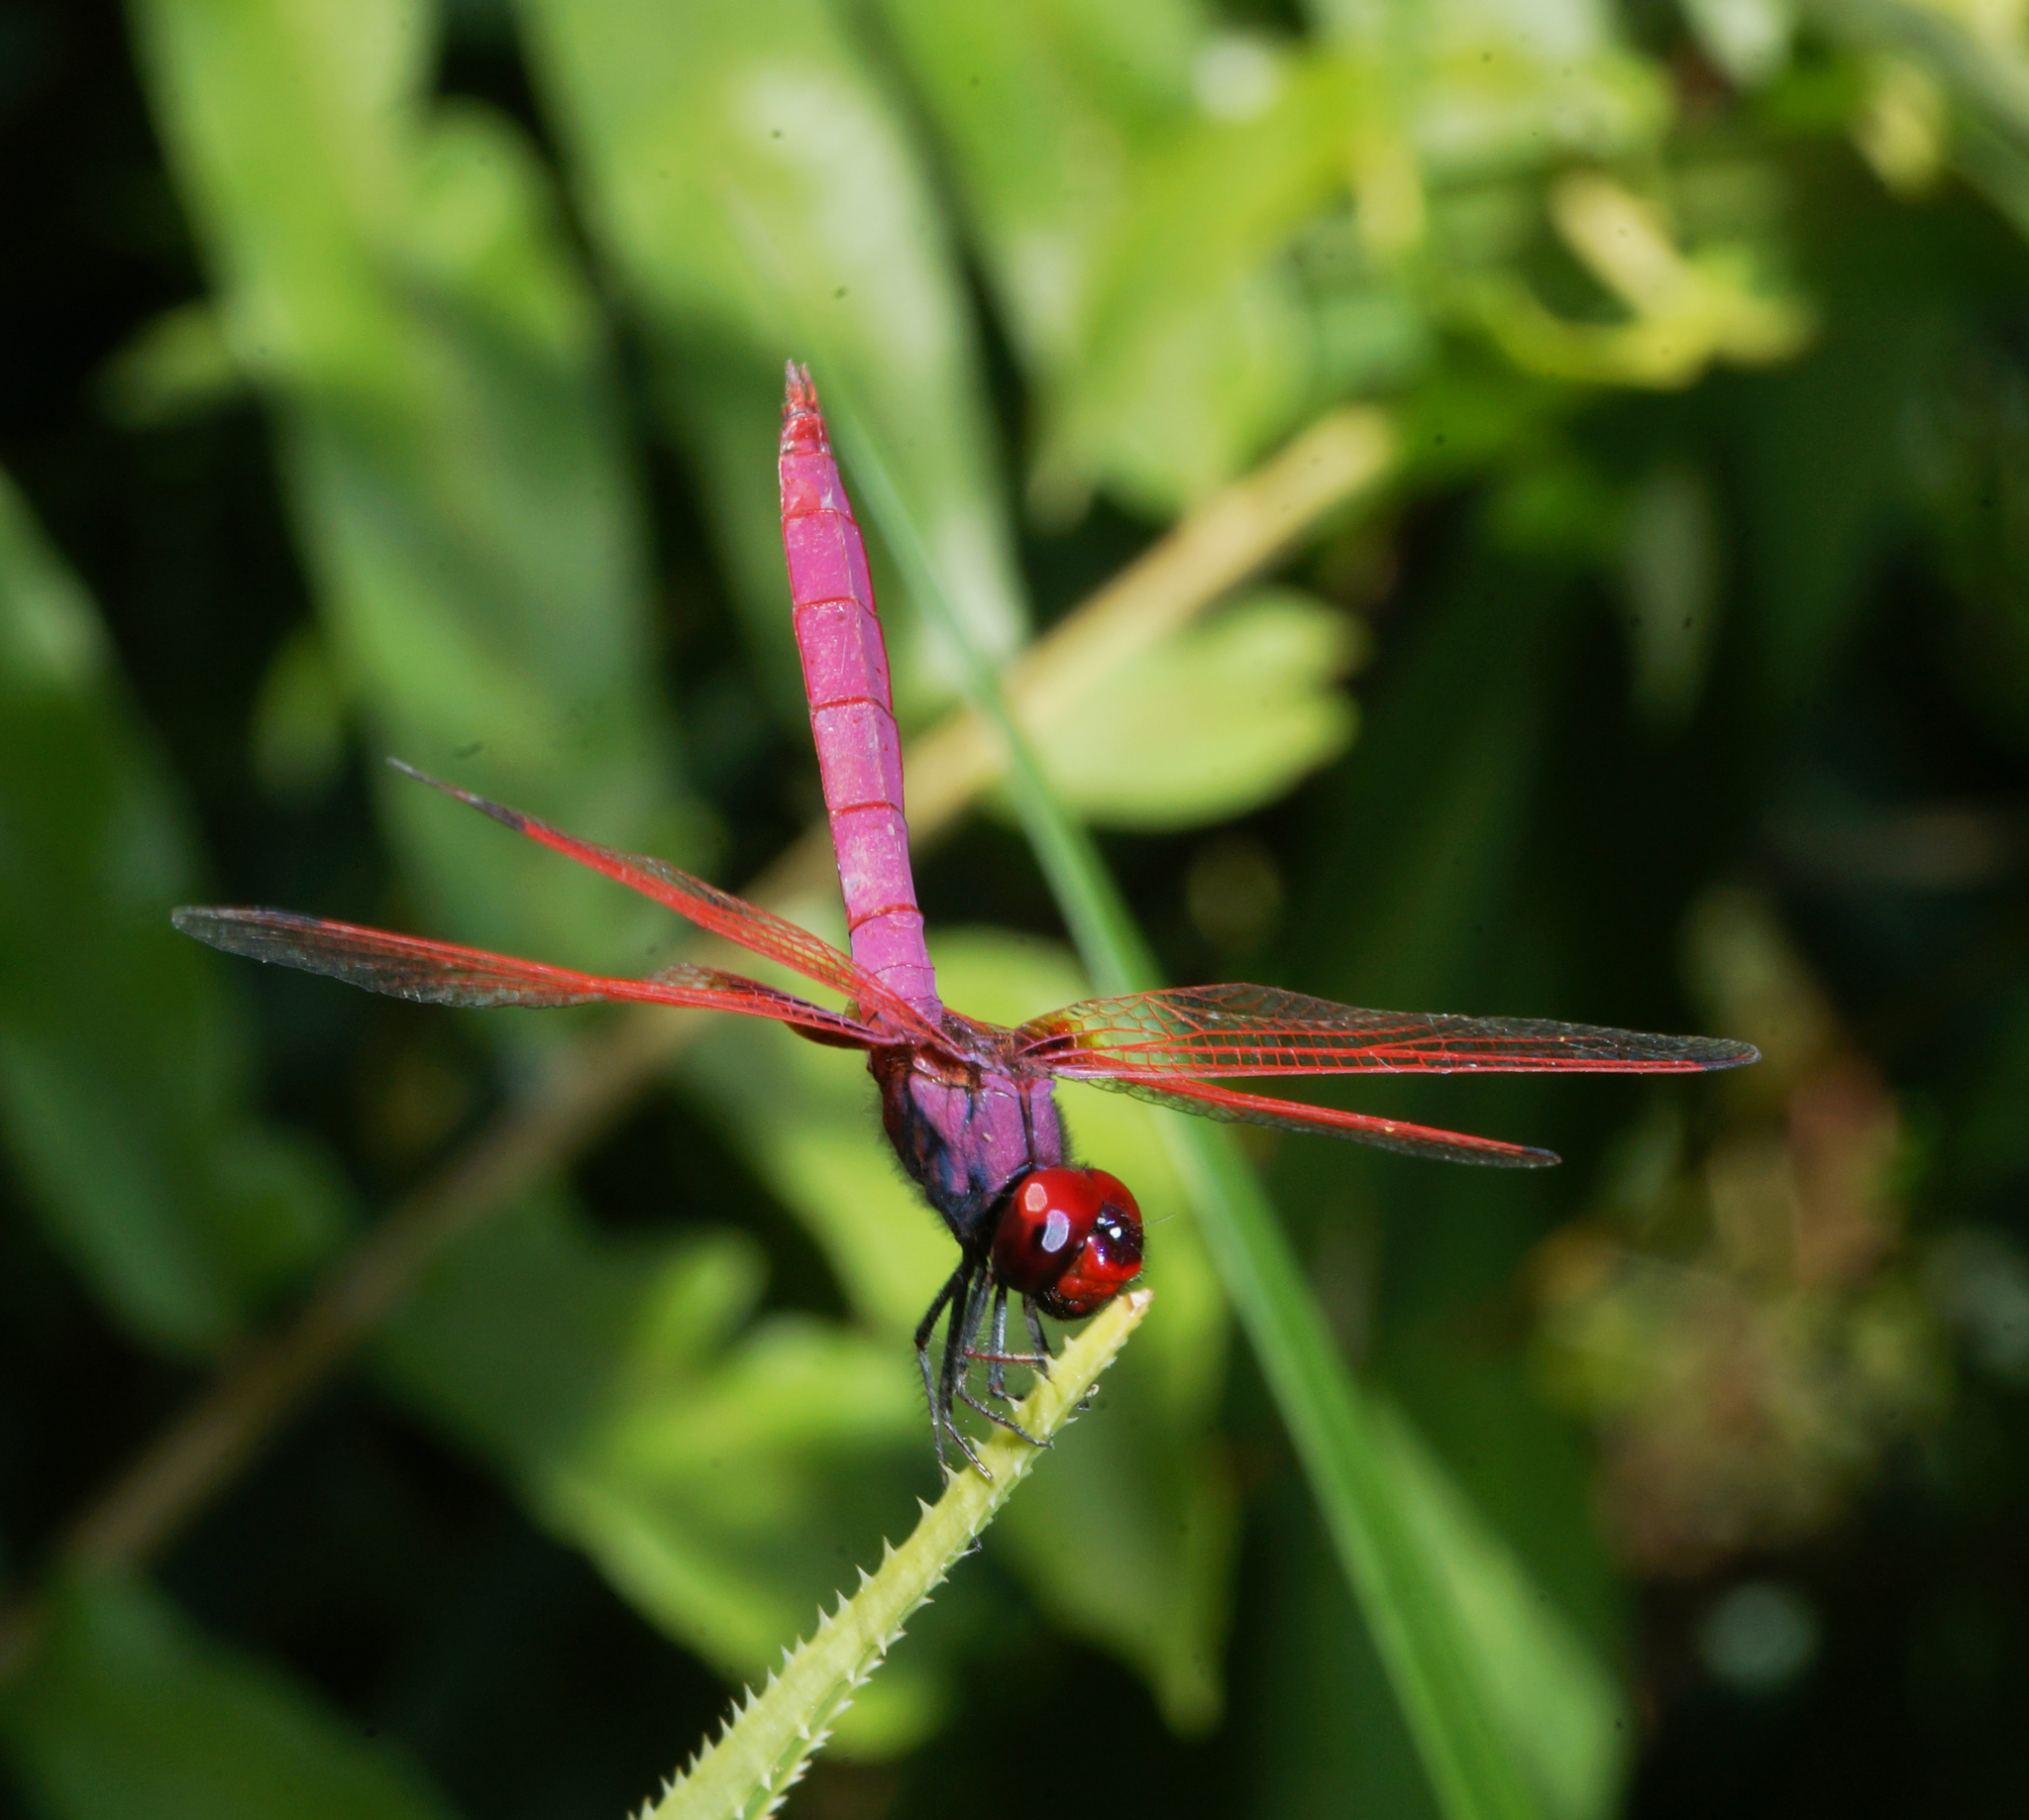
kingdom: Animalia
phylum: Arthropoda
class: Insecta
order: Odonata
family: Libellulidae
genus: Trithemis
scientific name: Trithemis aurora
